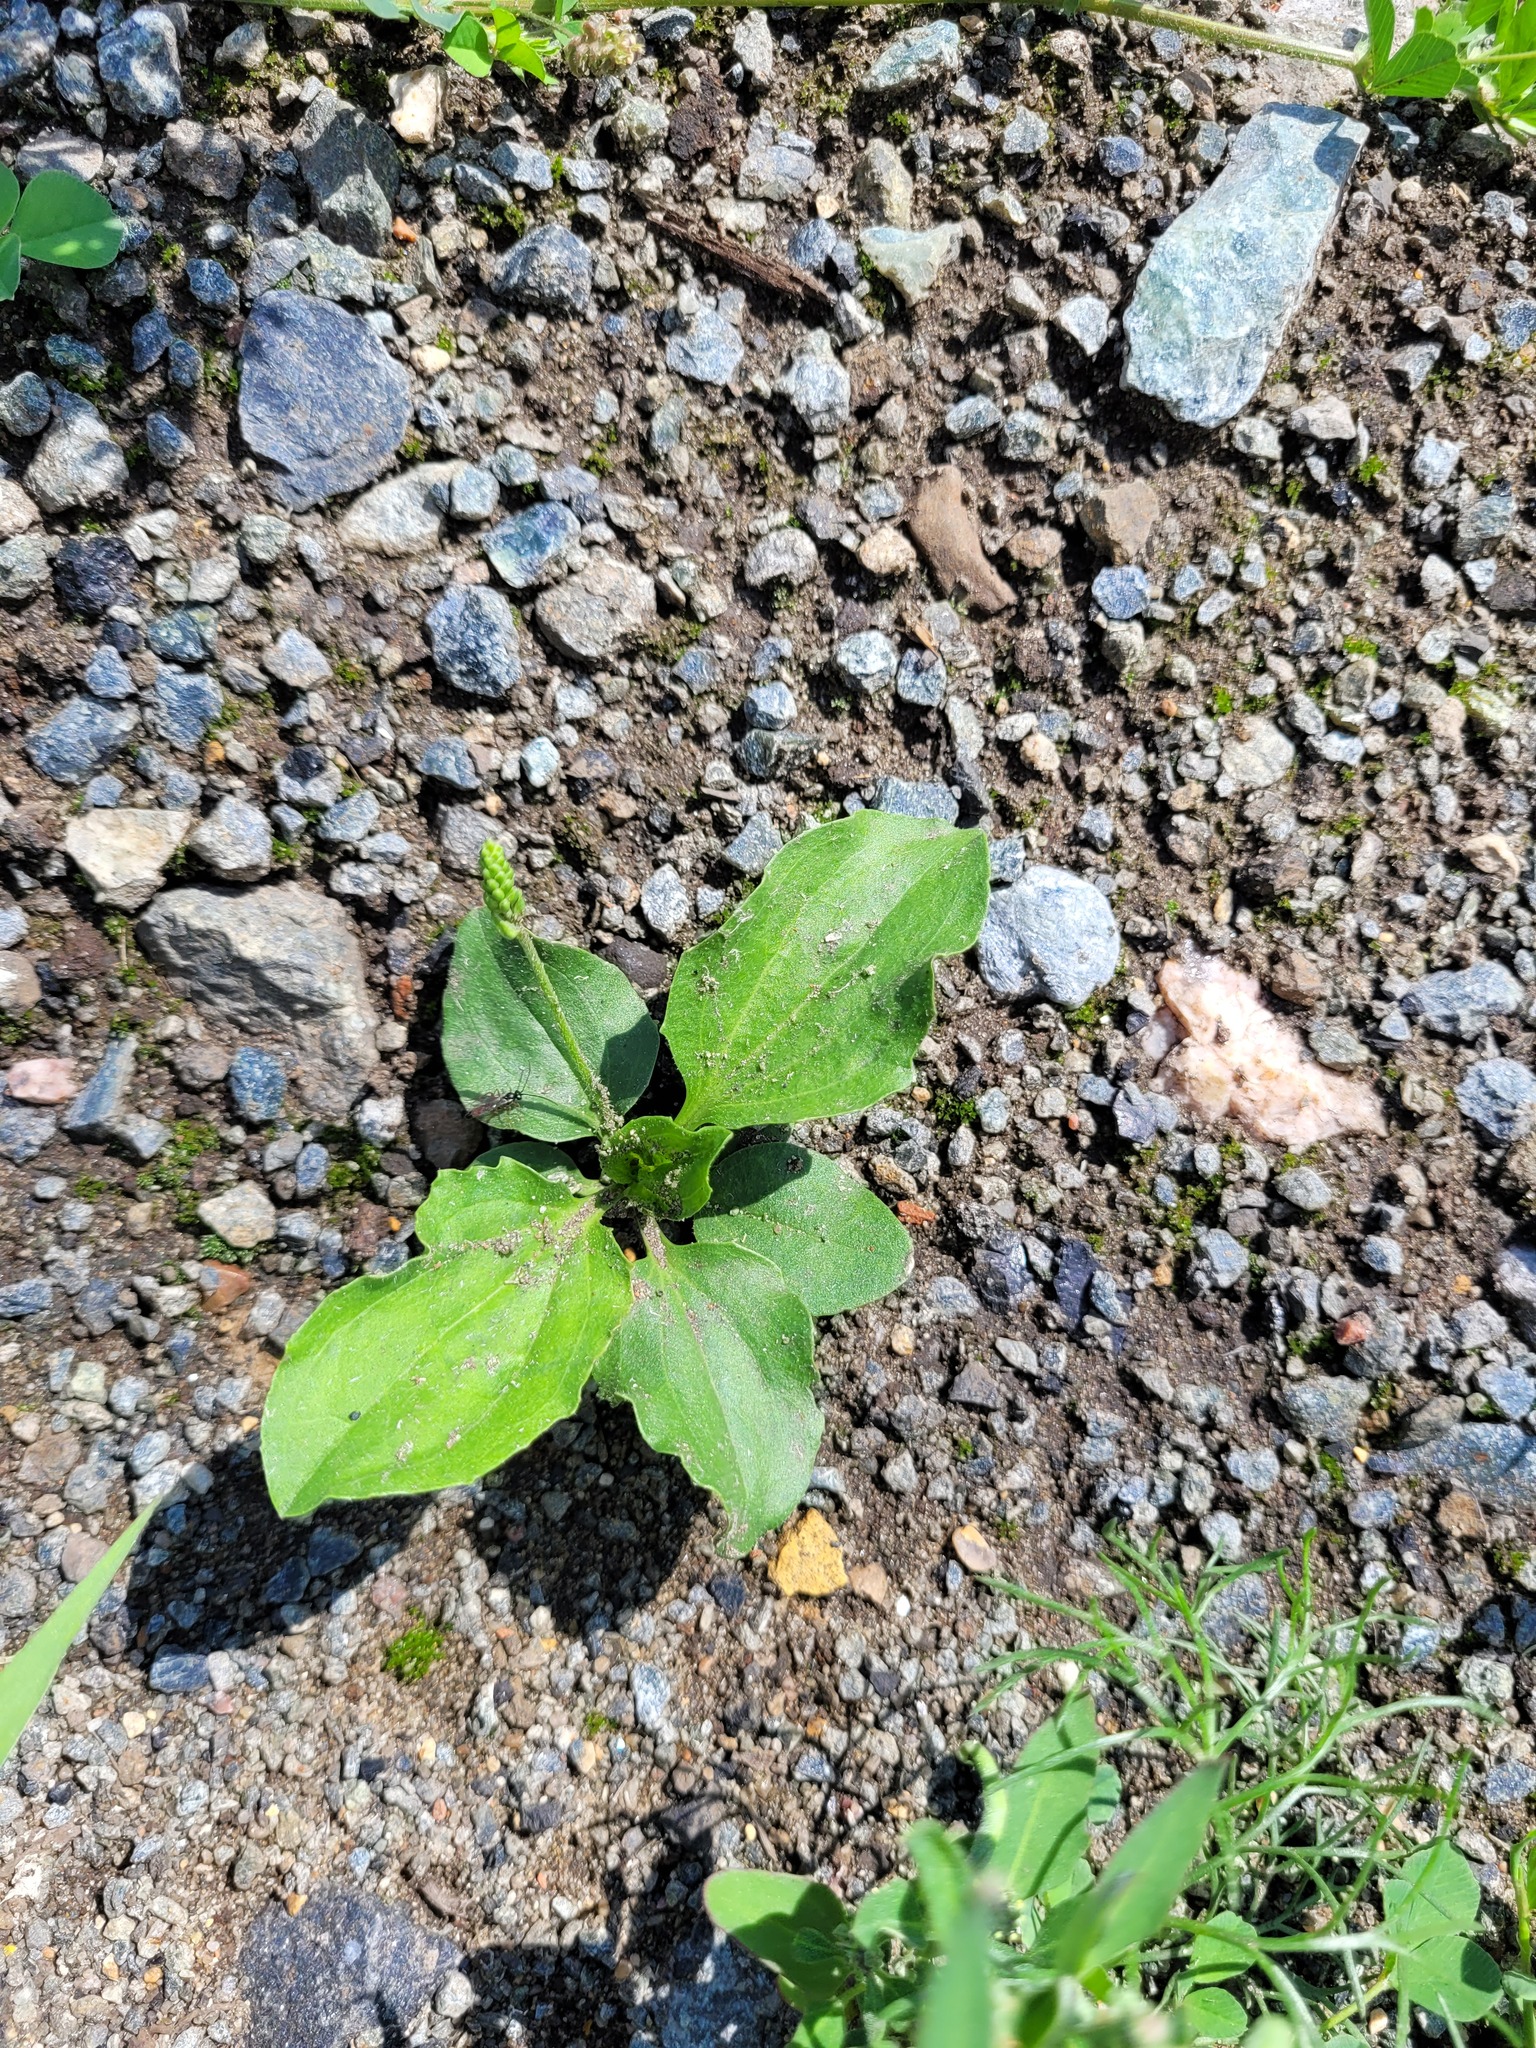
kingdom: Plantae
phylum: Tracheophyta
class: Magnoliopsida
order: Lamiales
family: Plantaginaceae
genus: Plantago
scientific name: Plantago uliginosa
